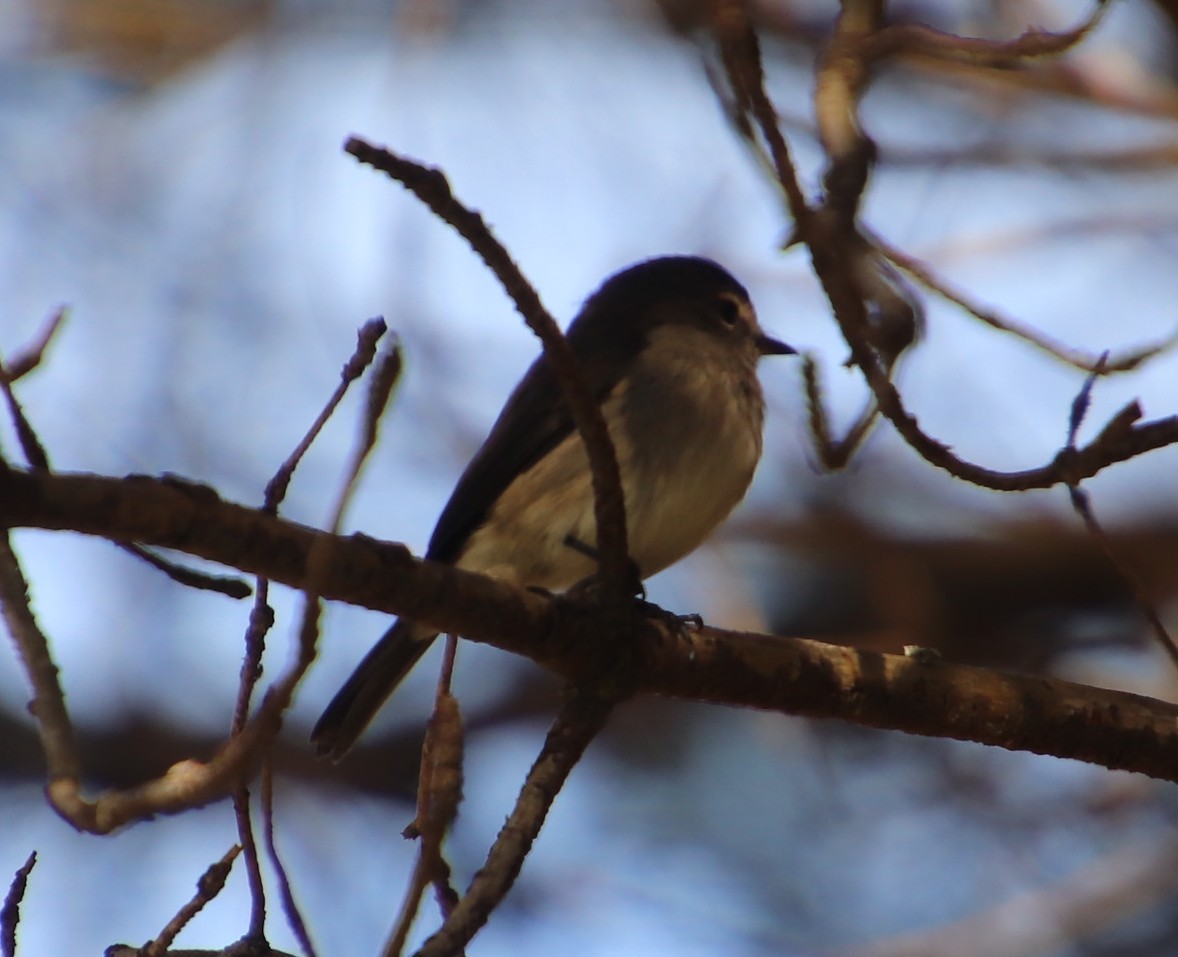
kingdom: Animalia
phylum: Chordata
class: Aves
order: Passeriformes
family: Muscicapidae
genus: Muscicapa
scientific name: Muscicapa adusta
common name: African dusky flycatcher
